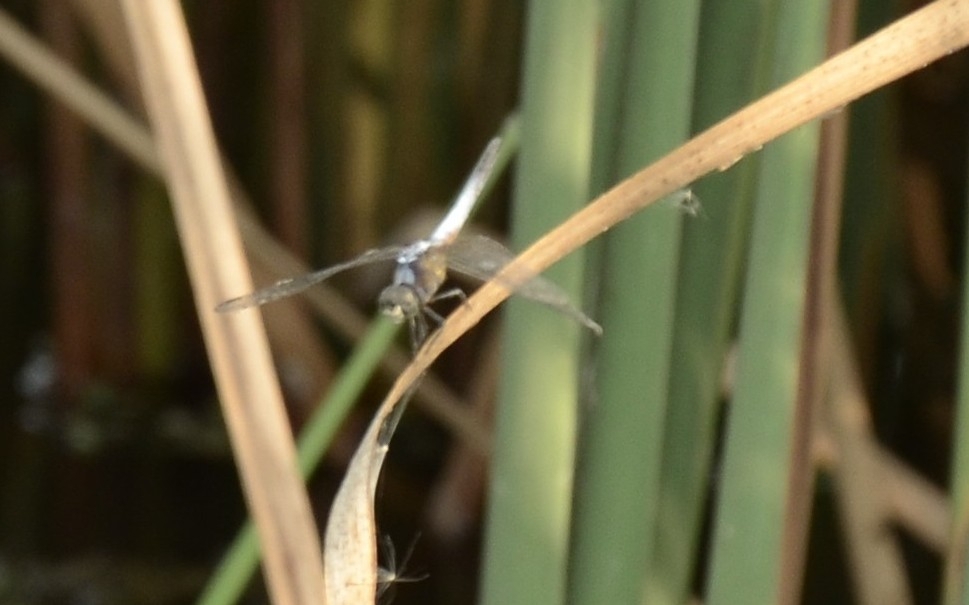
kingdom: Animalia
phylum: Arthropoda
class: Insecta
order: Odonata
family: Libellulidae
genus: Brachydiplax
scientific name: Brachydiplax chalybea
